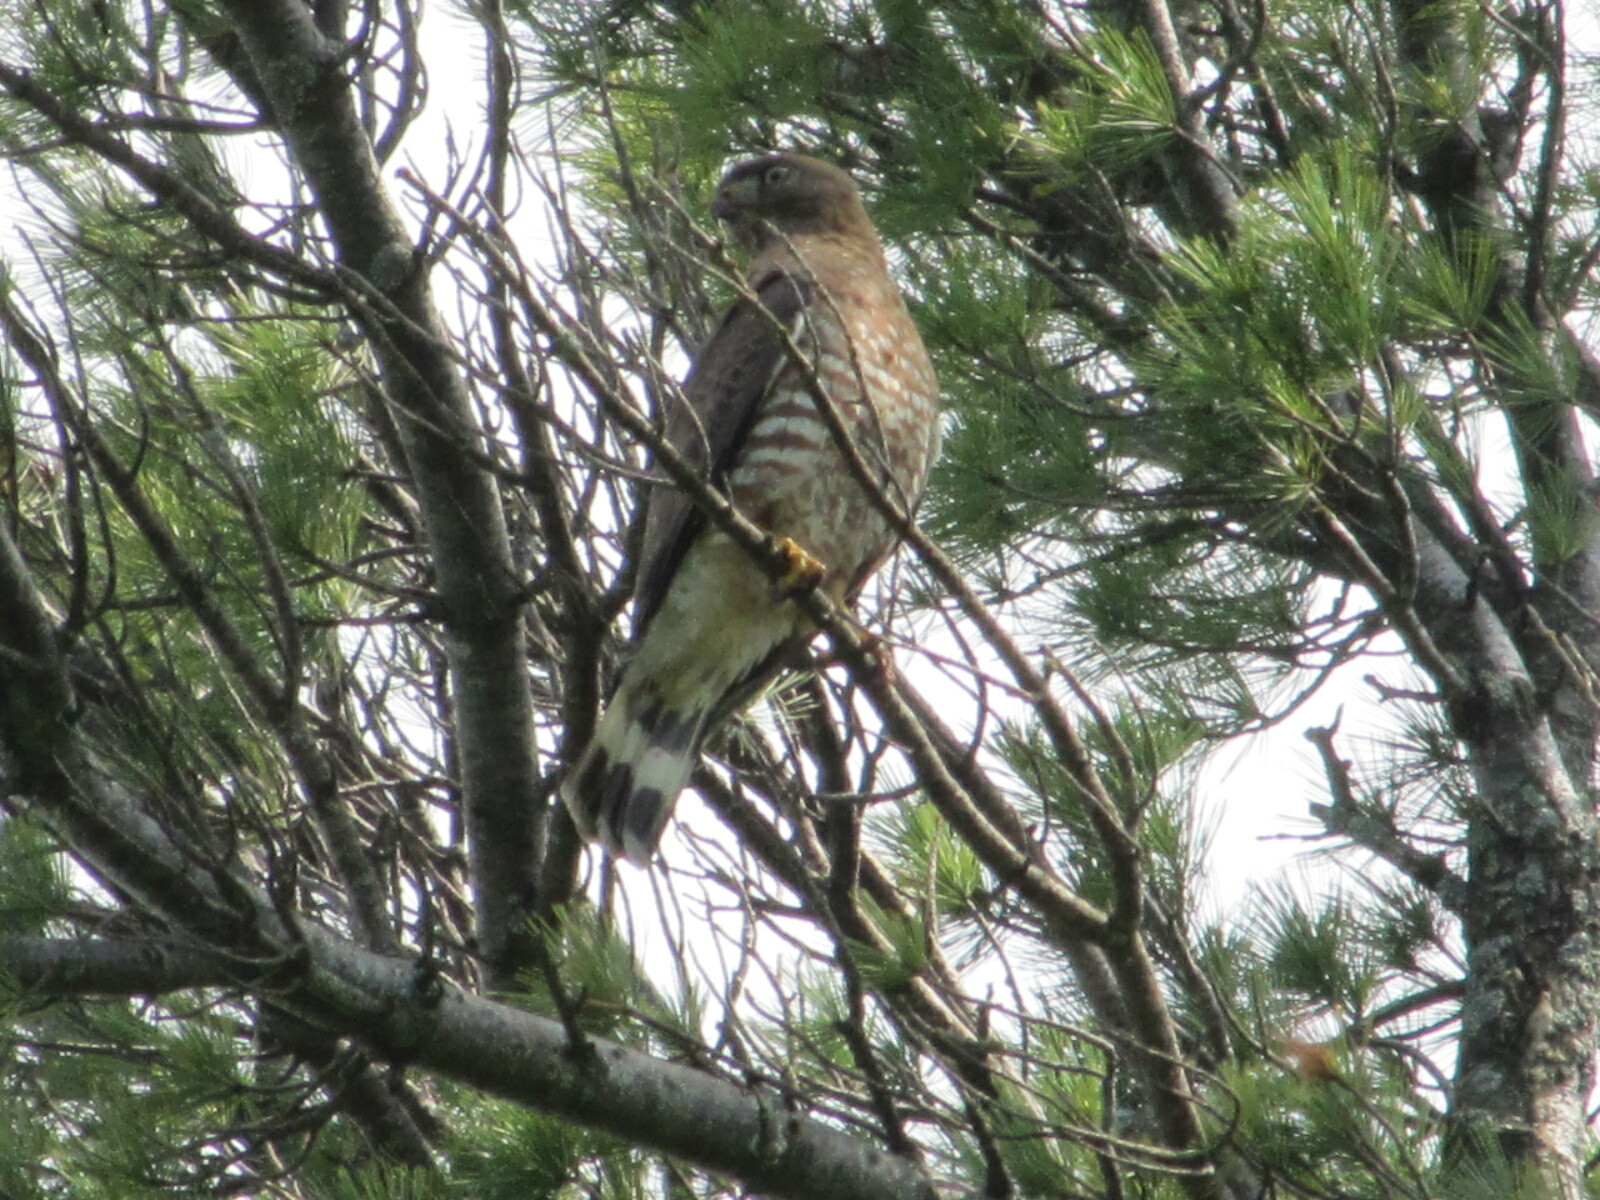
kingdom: Animalia
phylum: Chordata
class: Aves
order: Accipitriformes
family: Accipitridae
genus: Buteo
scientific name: Buteo platypterus
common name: Broad-winged hawk
